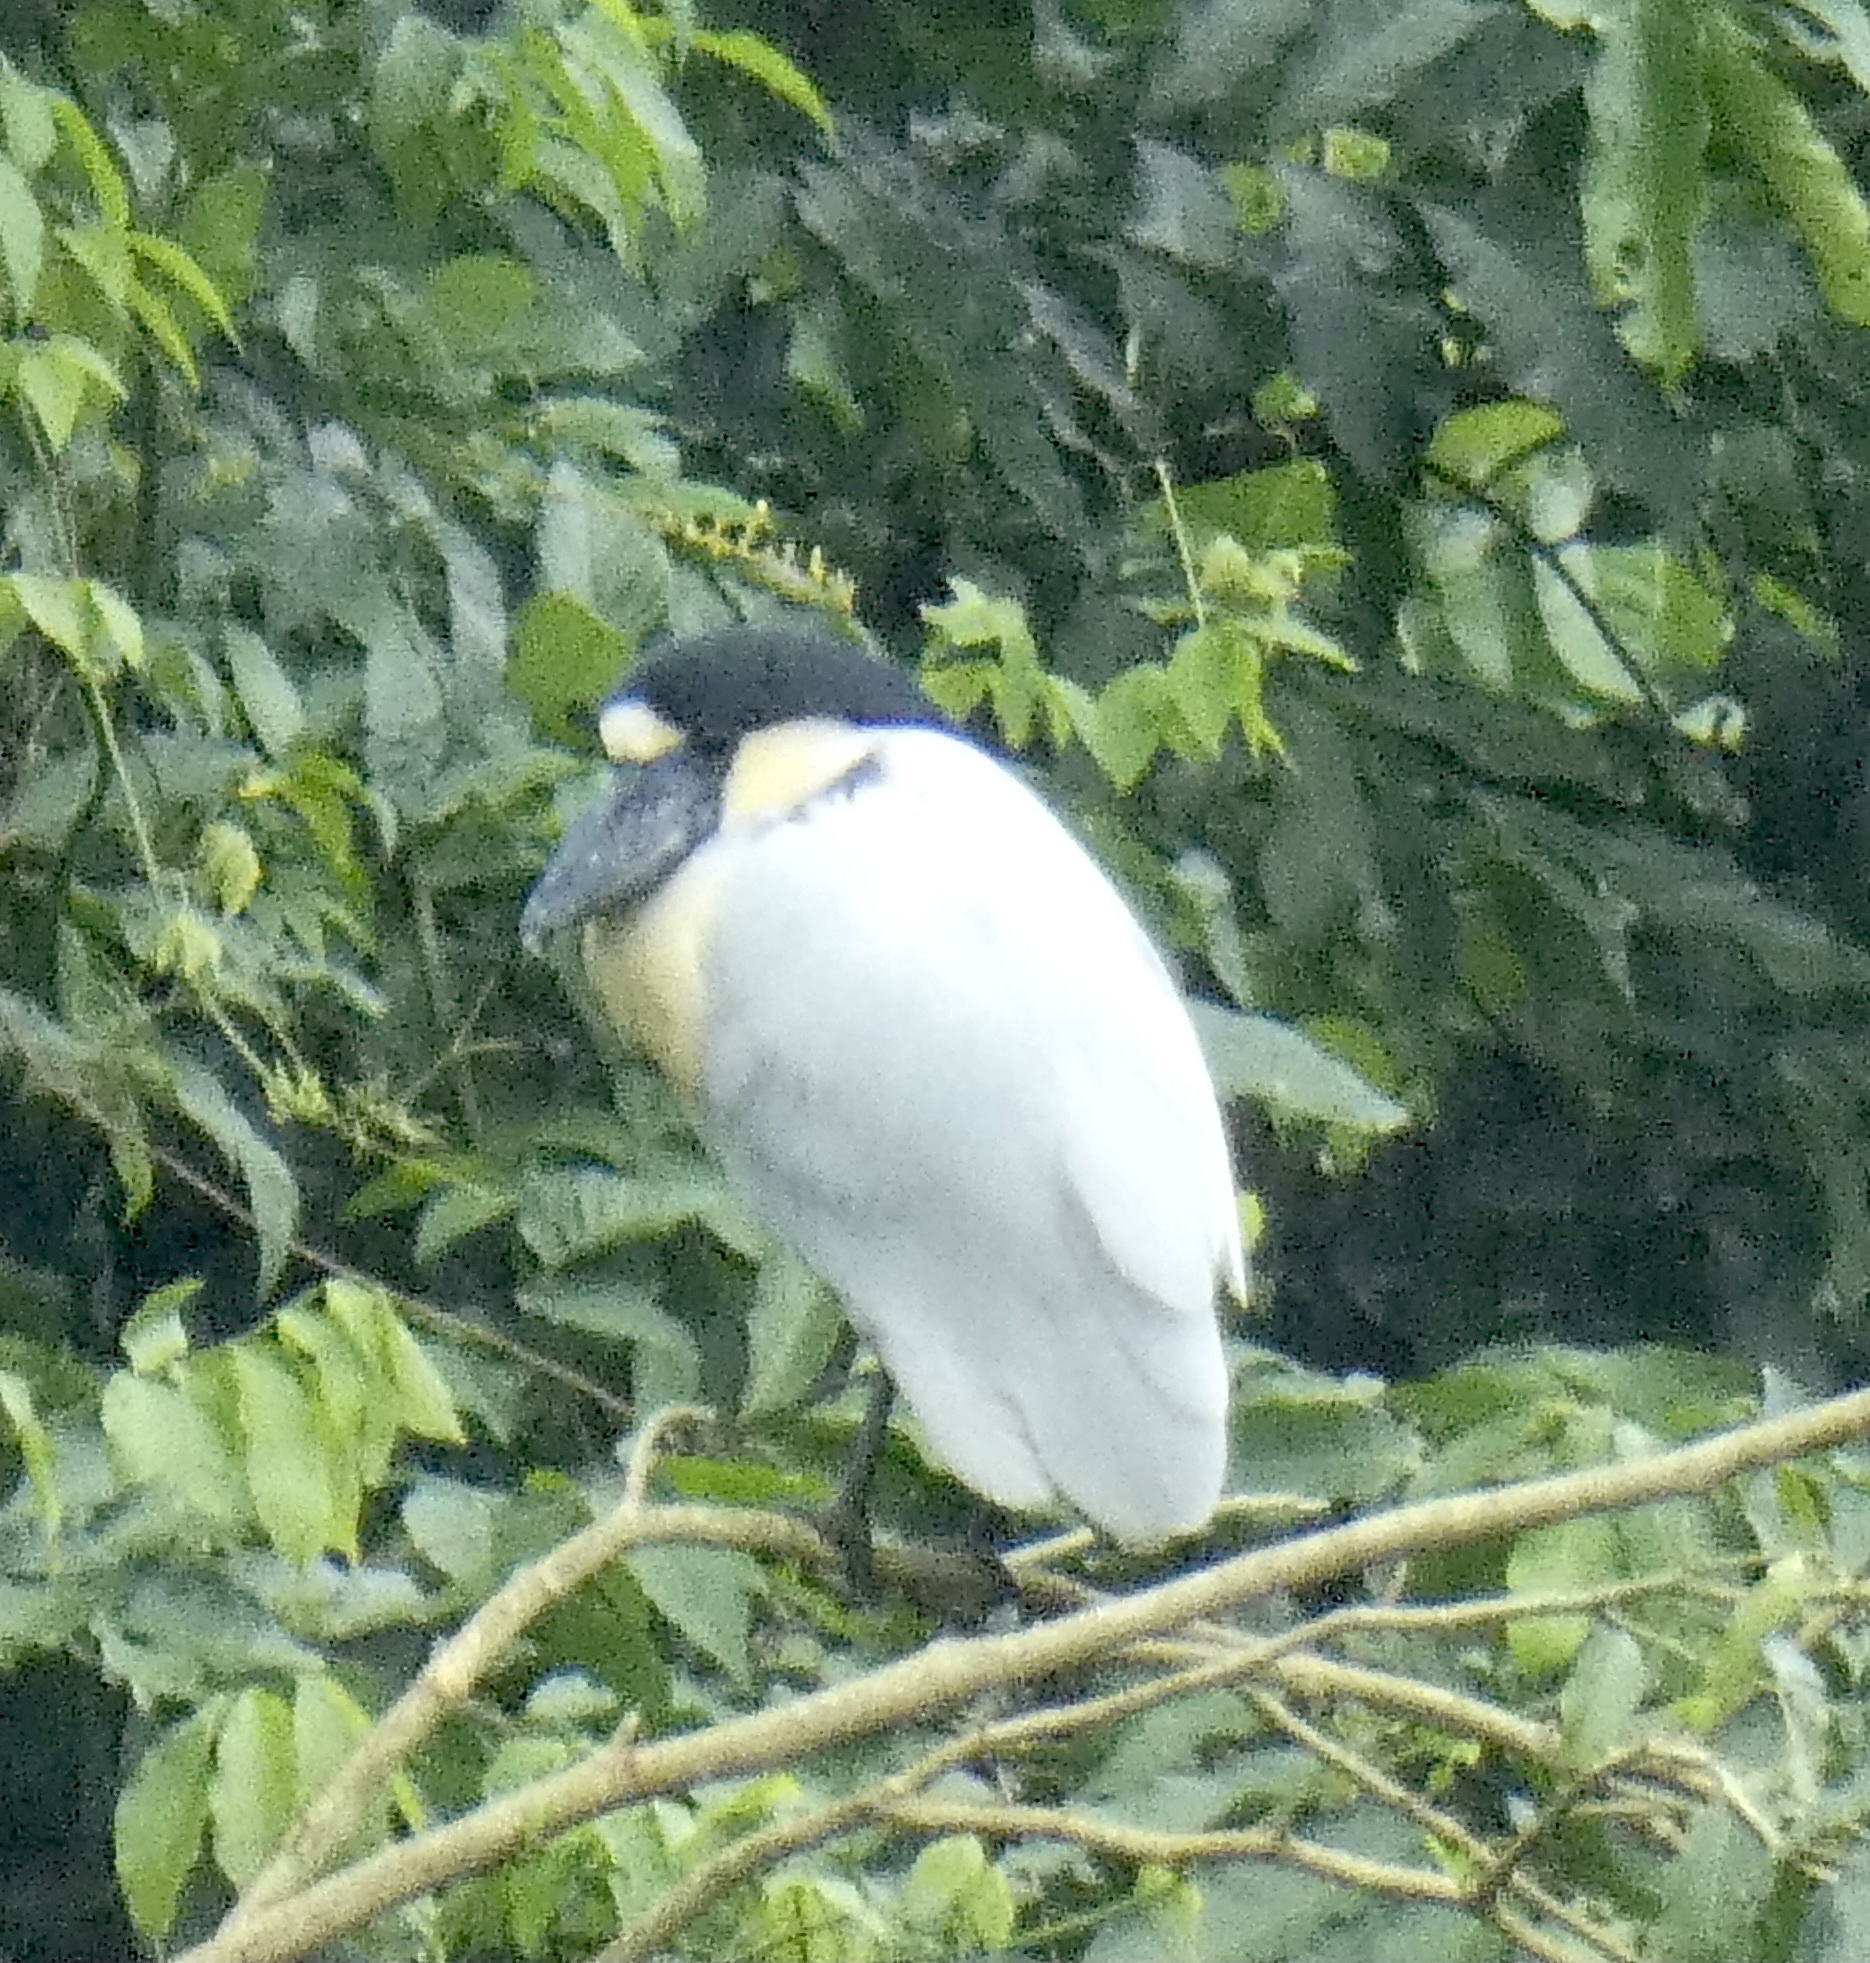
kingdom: Animalia
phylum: Chordata
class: Aves
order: Pelecaniformes
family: Ardeidae
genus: Cochlearius
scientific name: Cochlearius cochlearius
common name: Boat-billed heron
